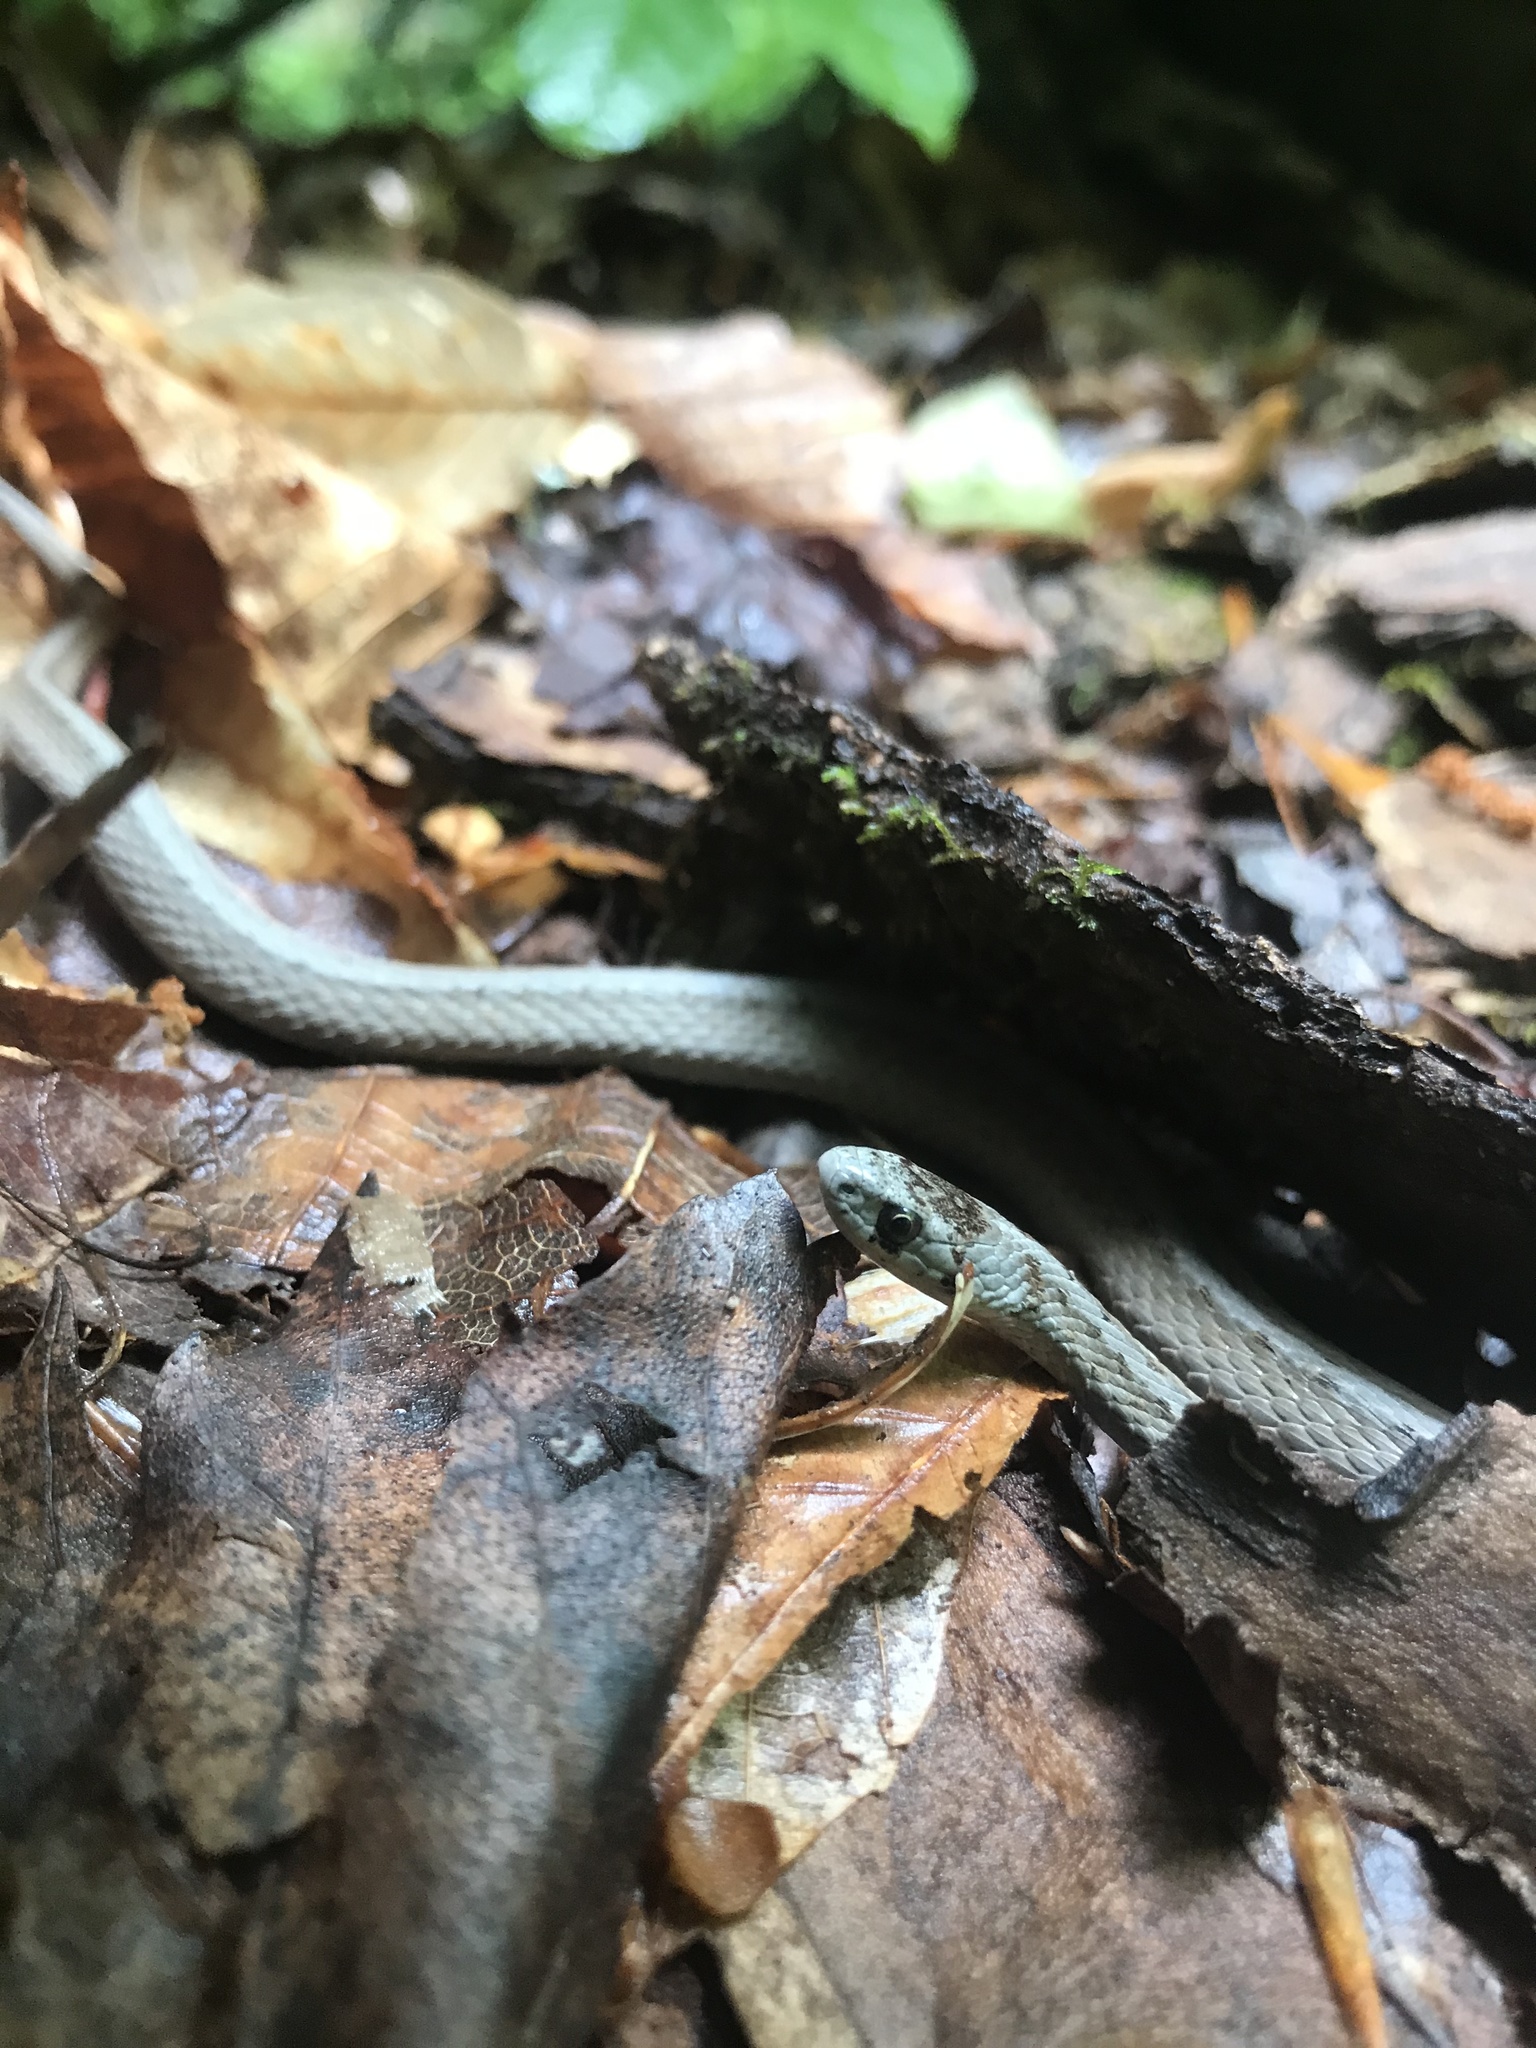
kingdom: Animalia
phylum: Chordata
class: Squamata
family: Colubridae
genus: Storeria
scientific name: Storeria dekayi
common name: (dekay’s) brown snake
